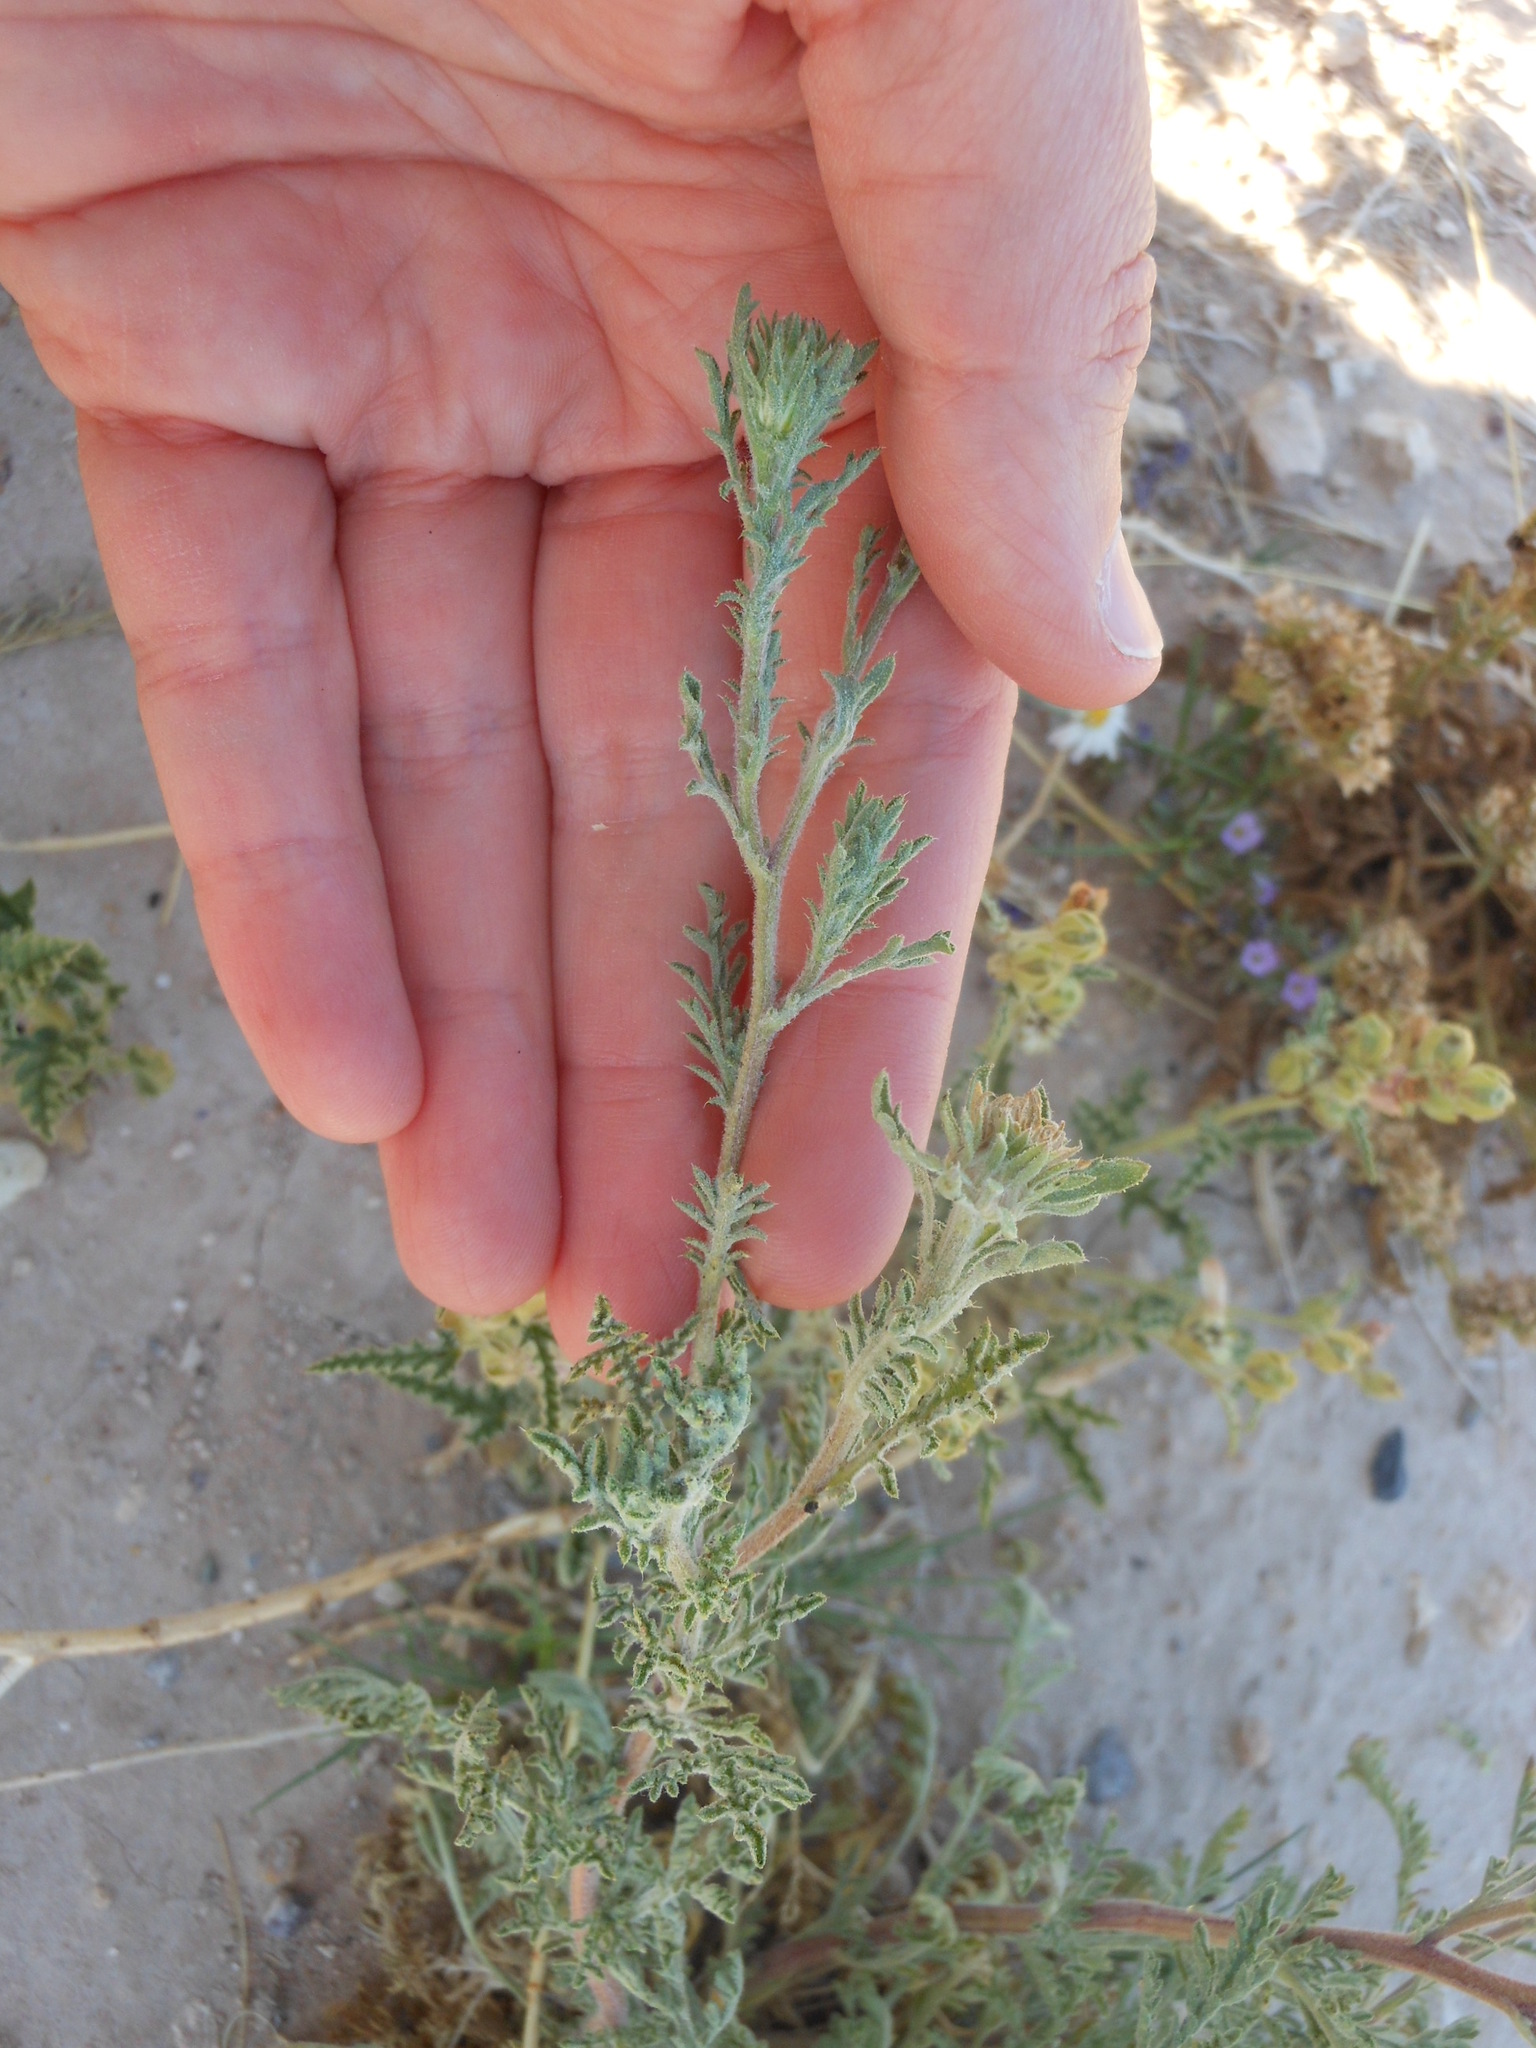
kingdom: Plantae
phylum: Tracheophyta
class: Magnoliopsida
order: Asterales
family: Asteraceae
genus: Machaeranthera
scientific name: Machaeranthera tanacetifolia
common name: Tansy-aster
